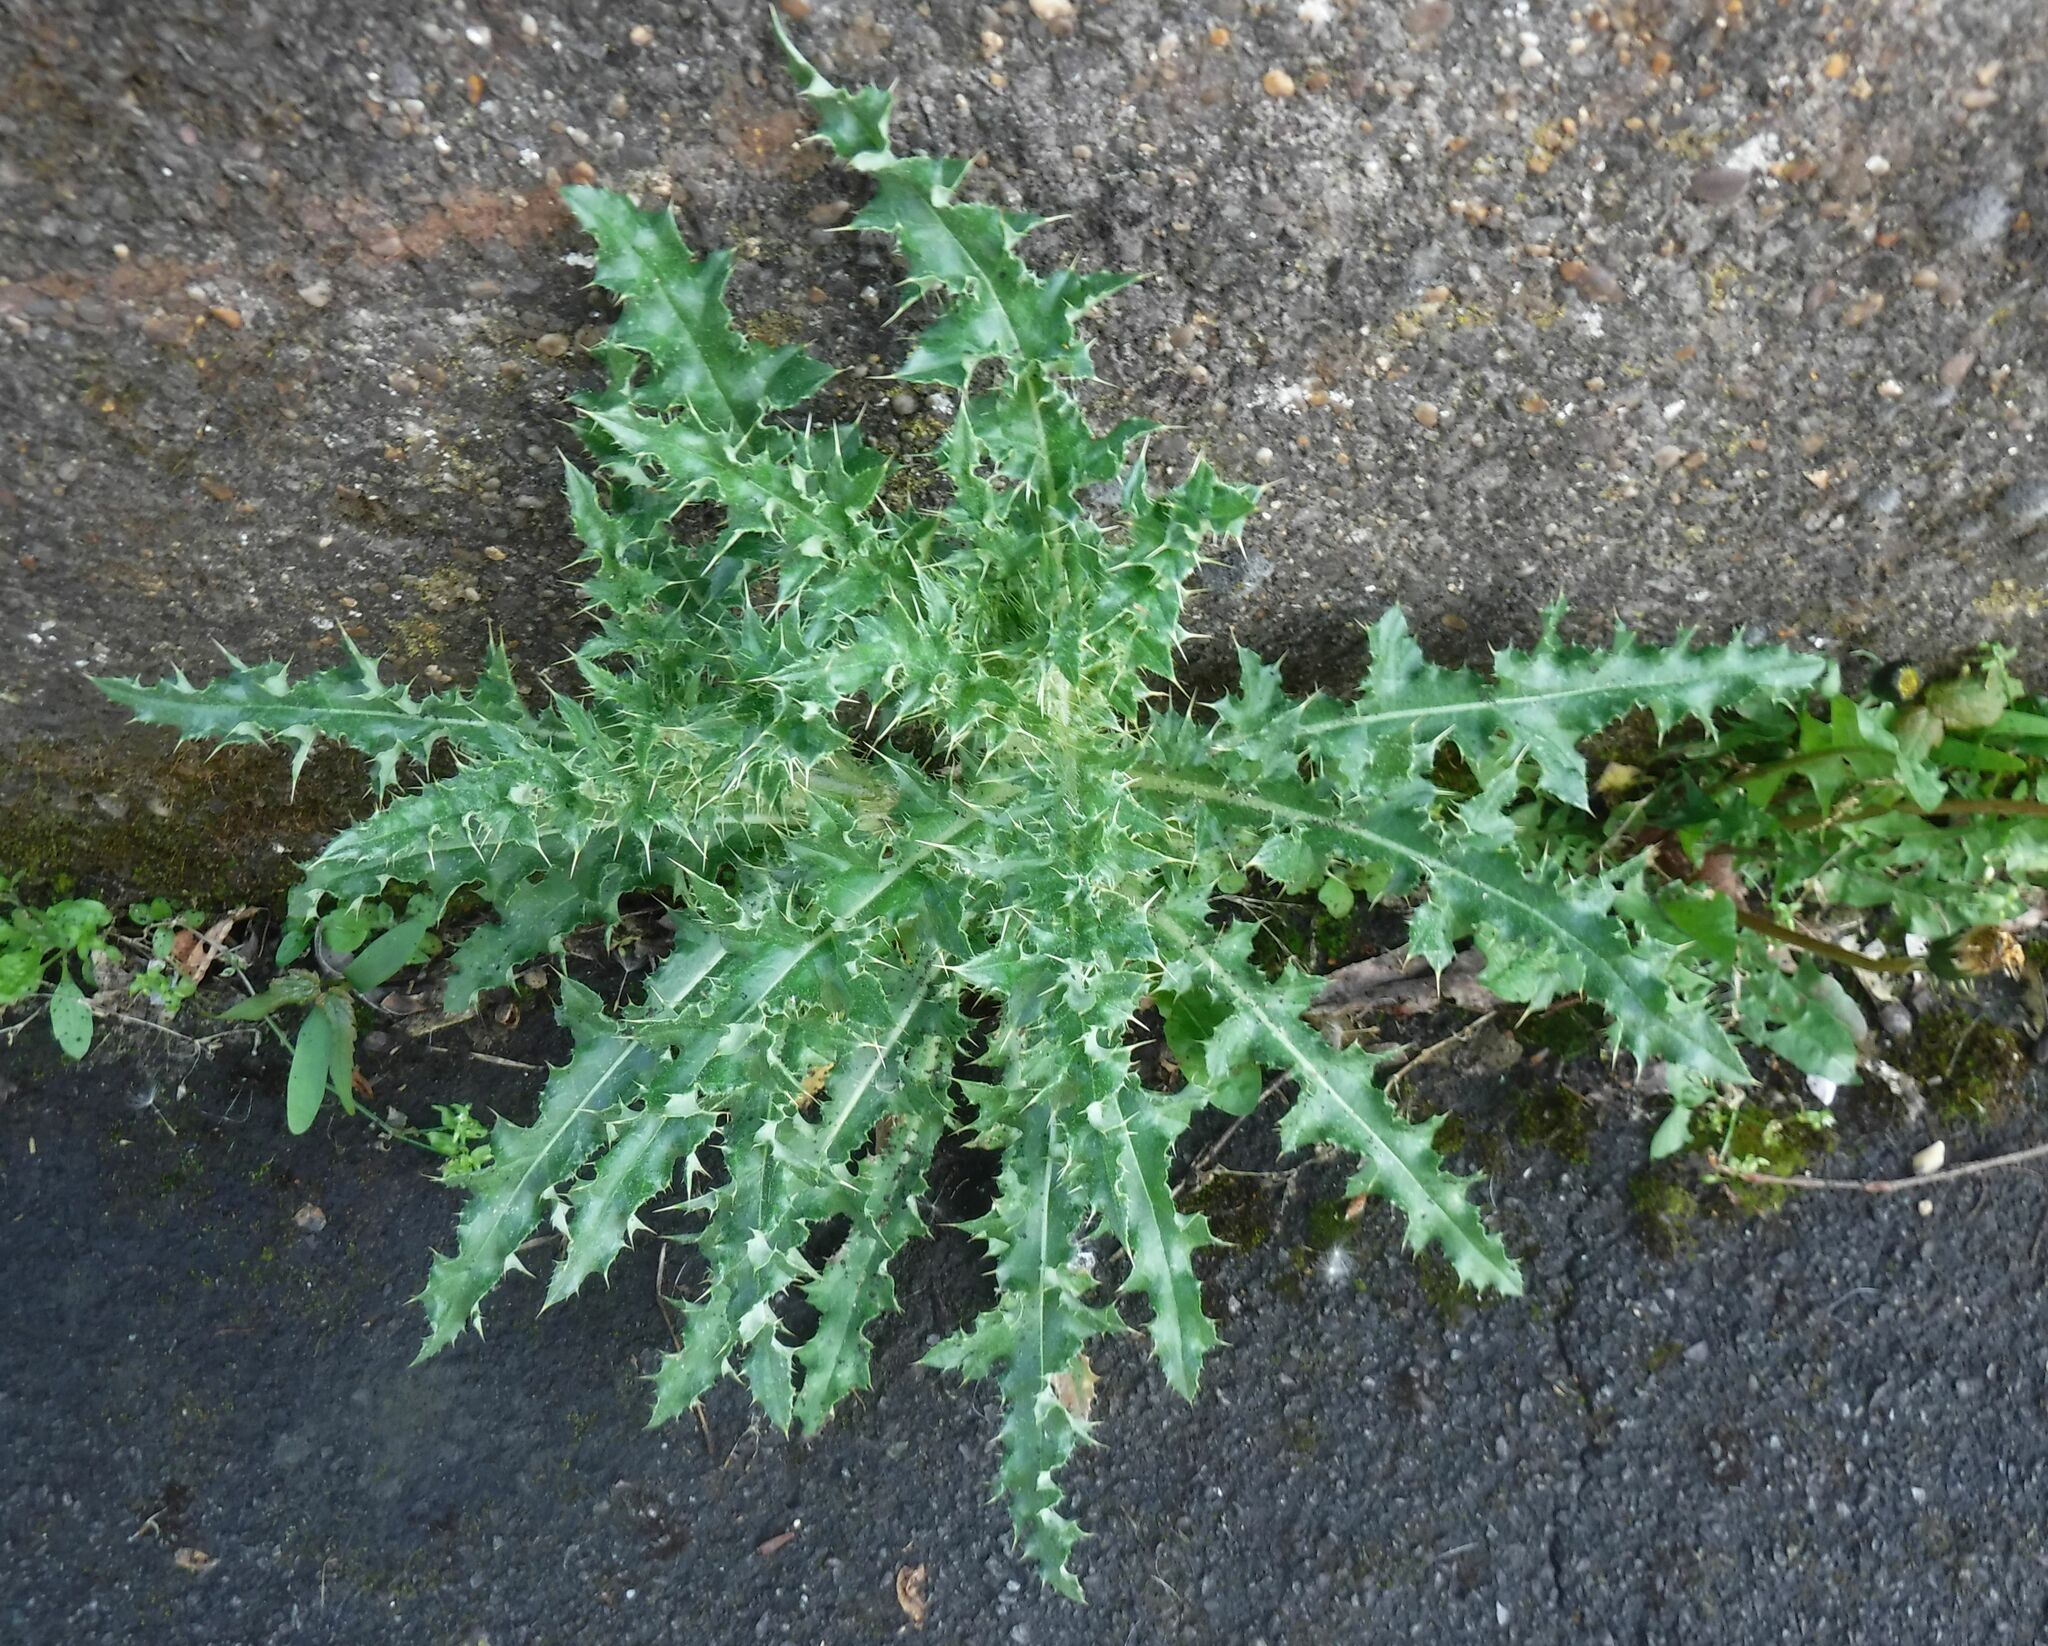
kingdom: Plantae
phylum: Tracheophyta
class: Magnoliopsida
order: Asterales
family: Asteraceae
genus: Cirsium
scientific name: Cirsium arvense
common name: Creeping thistle
